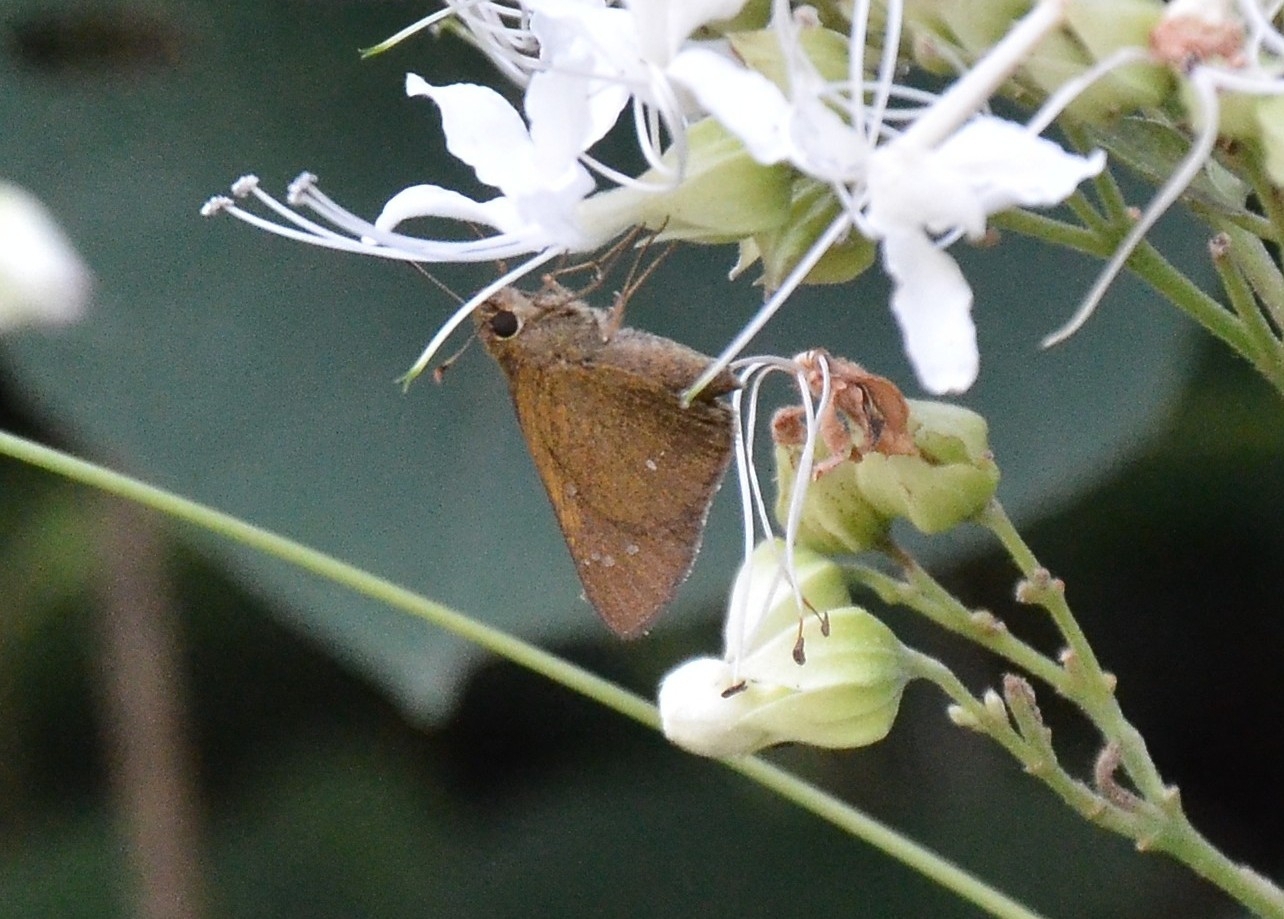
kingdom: Animalia
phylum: Arthropoda
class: Insecta
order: Lepidoptera
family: Hesperiidae
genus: Polytremis
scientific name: Polytremis lubricans
